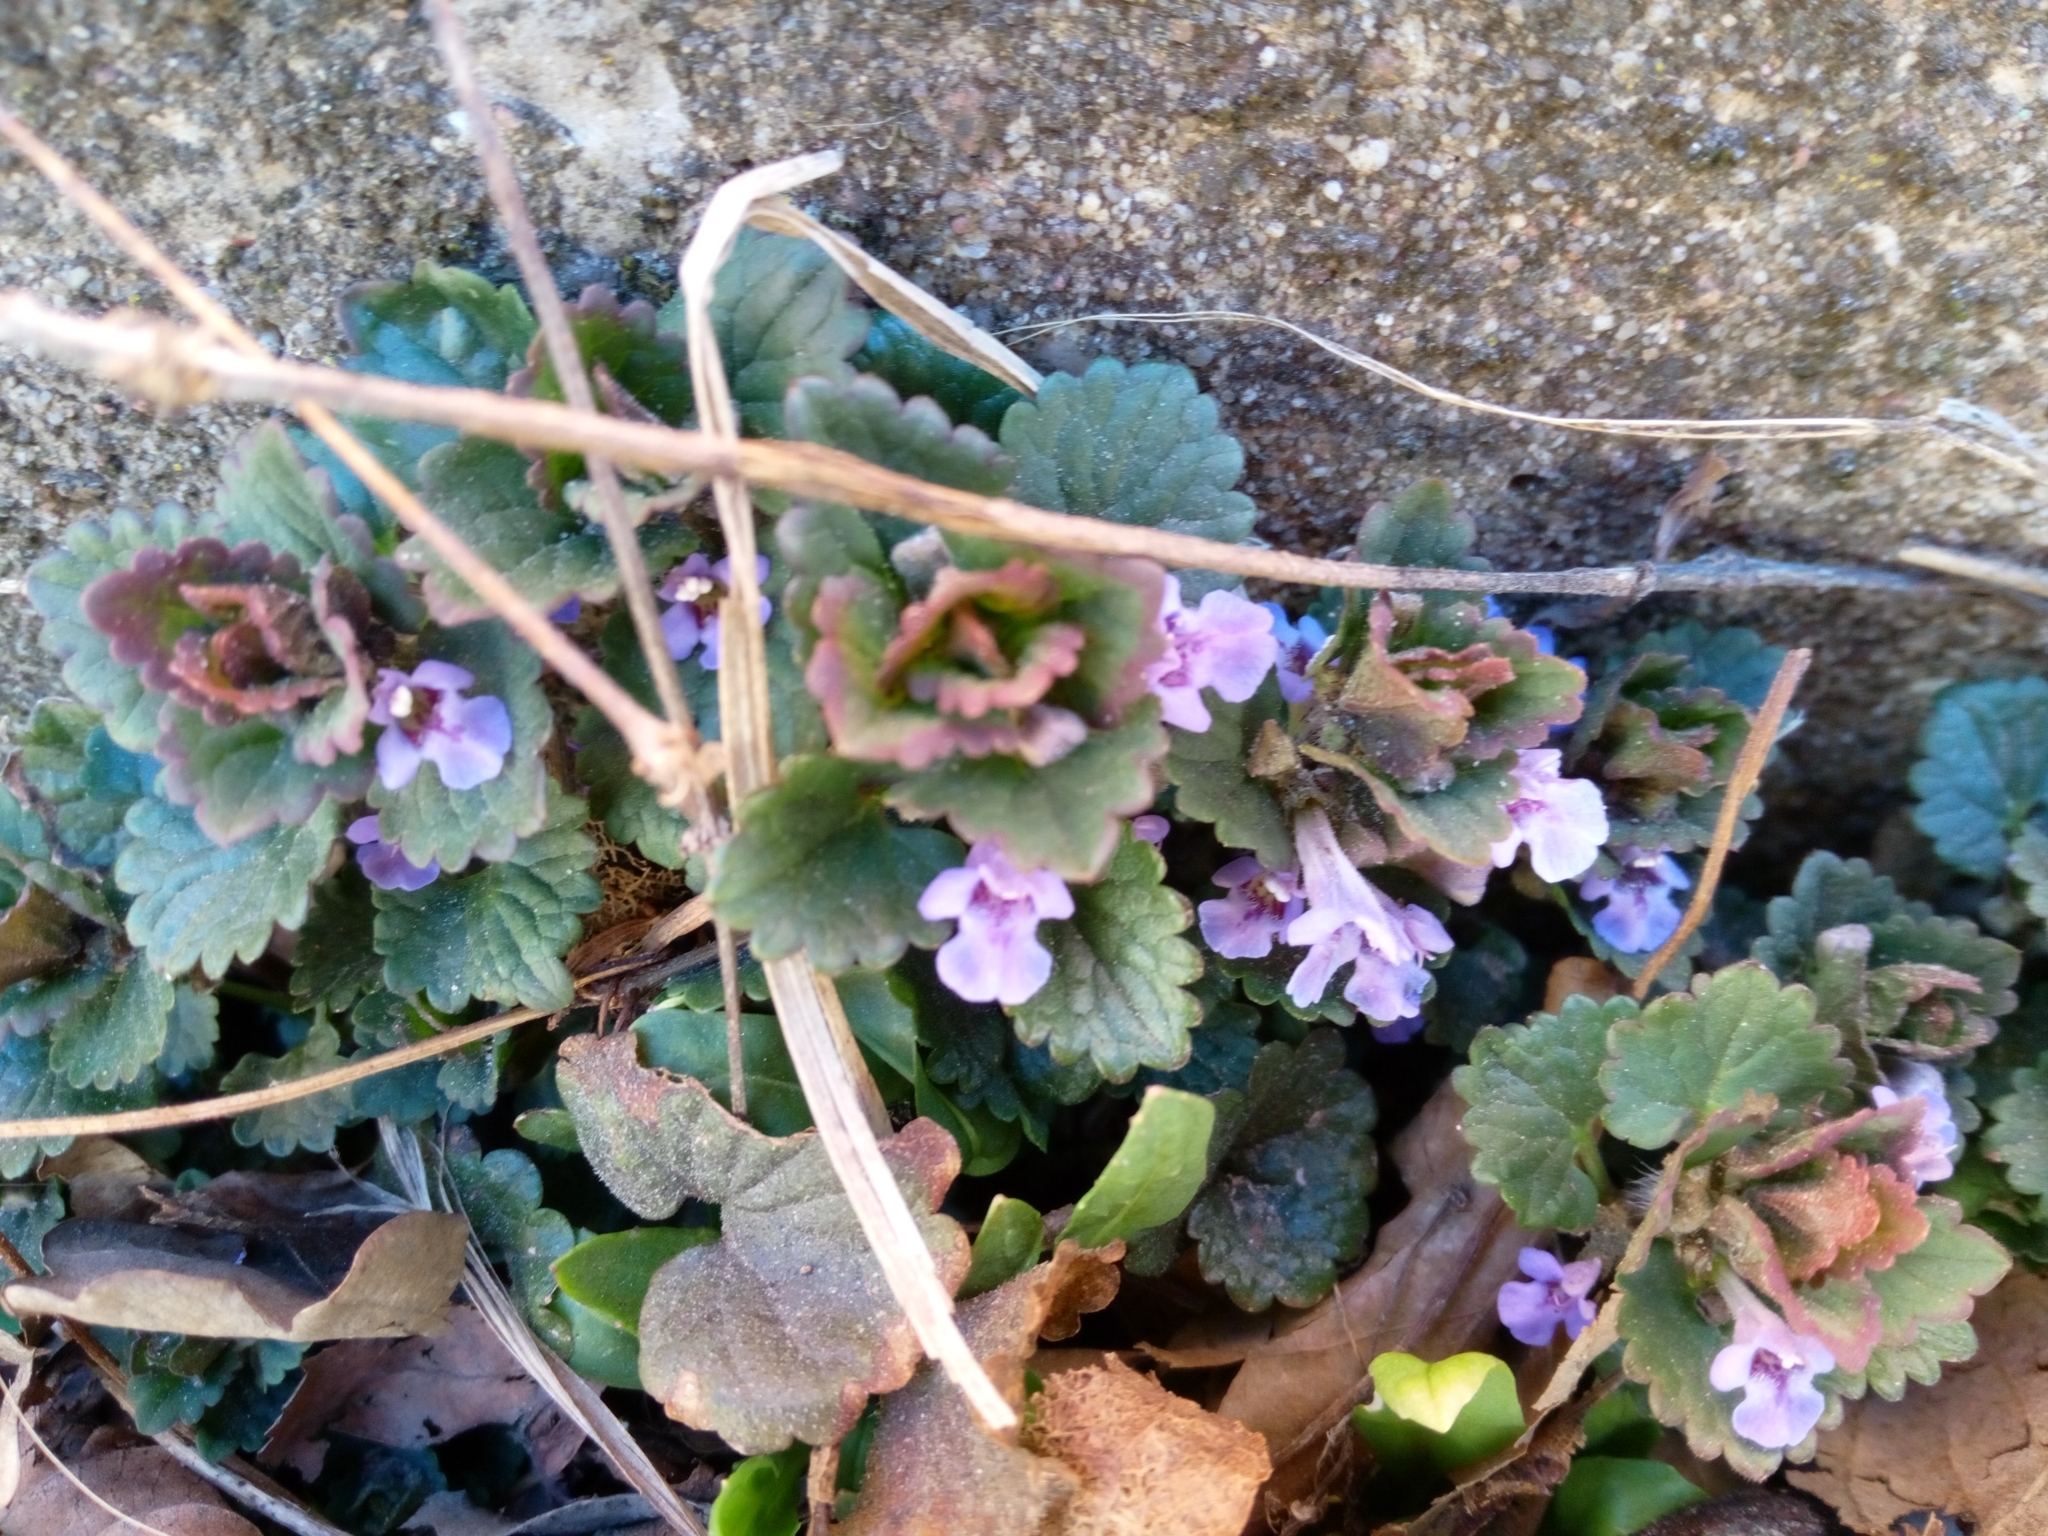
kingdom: Plantae
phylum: Tracheophyta
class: Magnoliopsida
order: Lamiales
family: Lamiaceae
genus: Glechoma
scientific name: Glechoma hederacea
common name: Ground ivy
